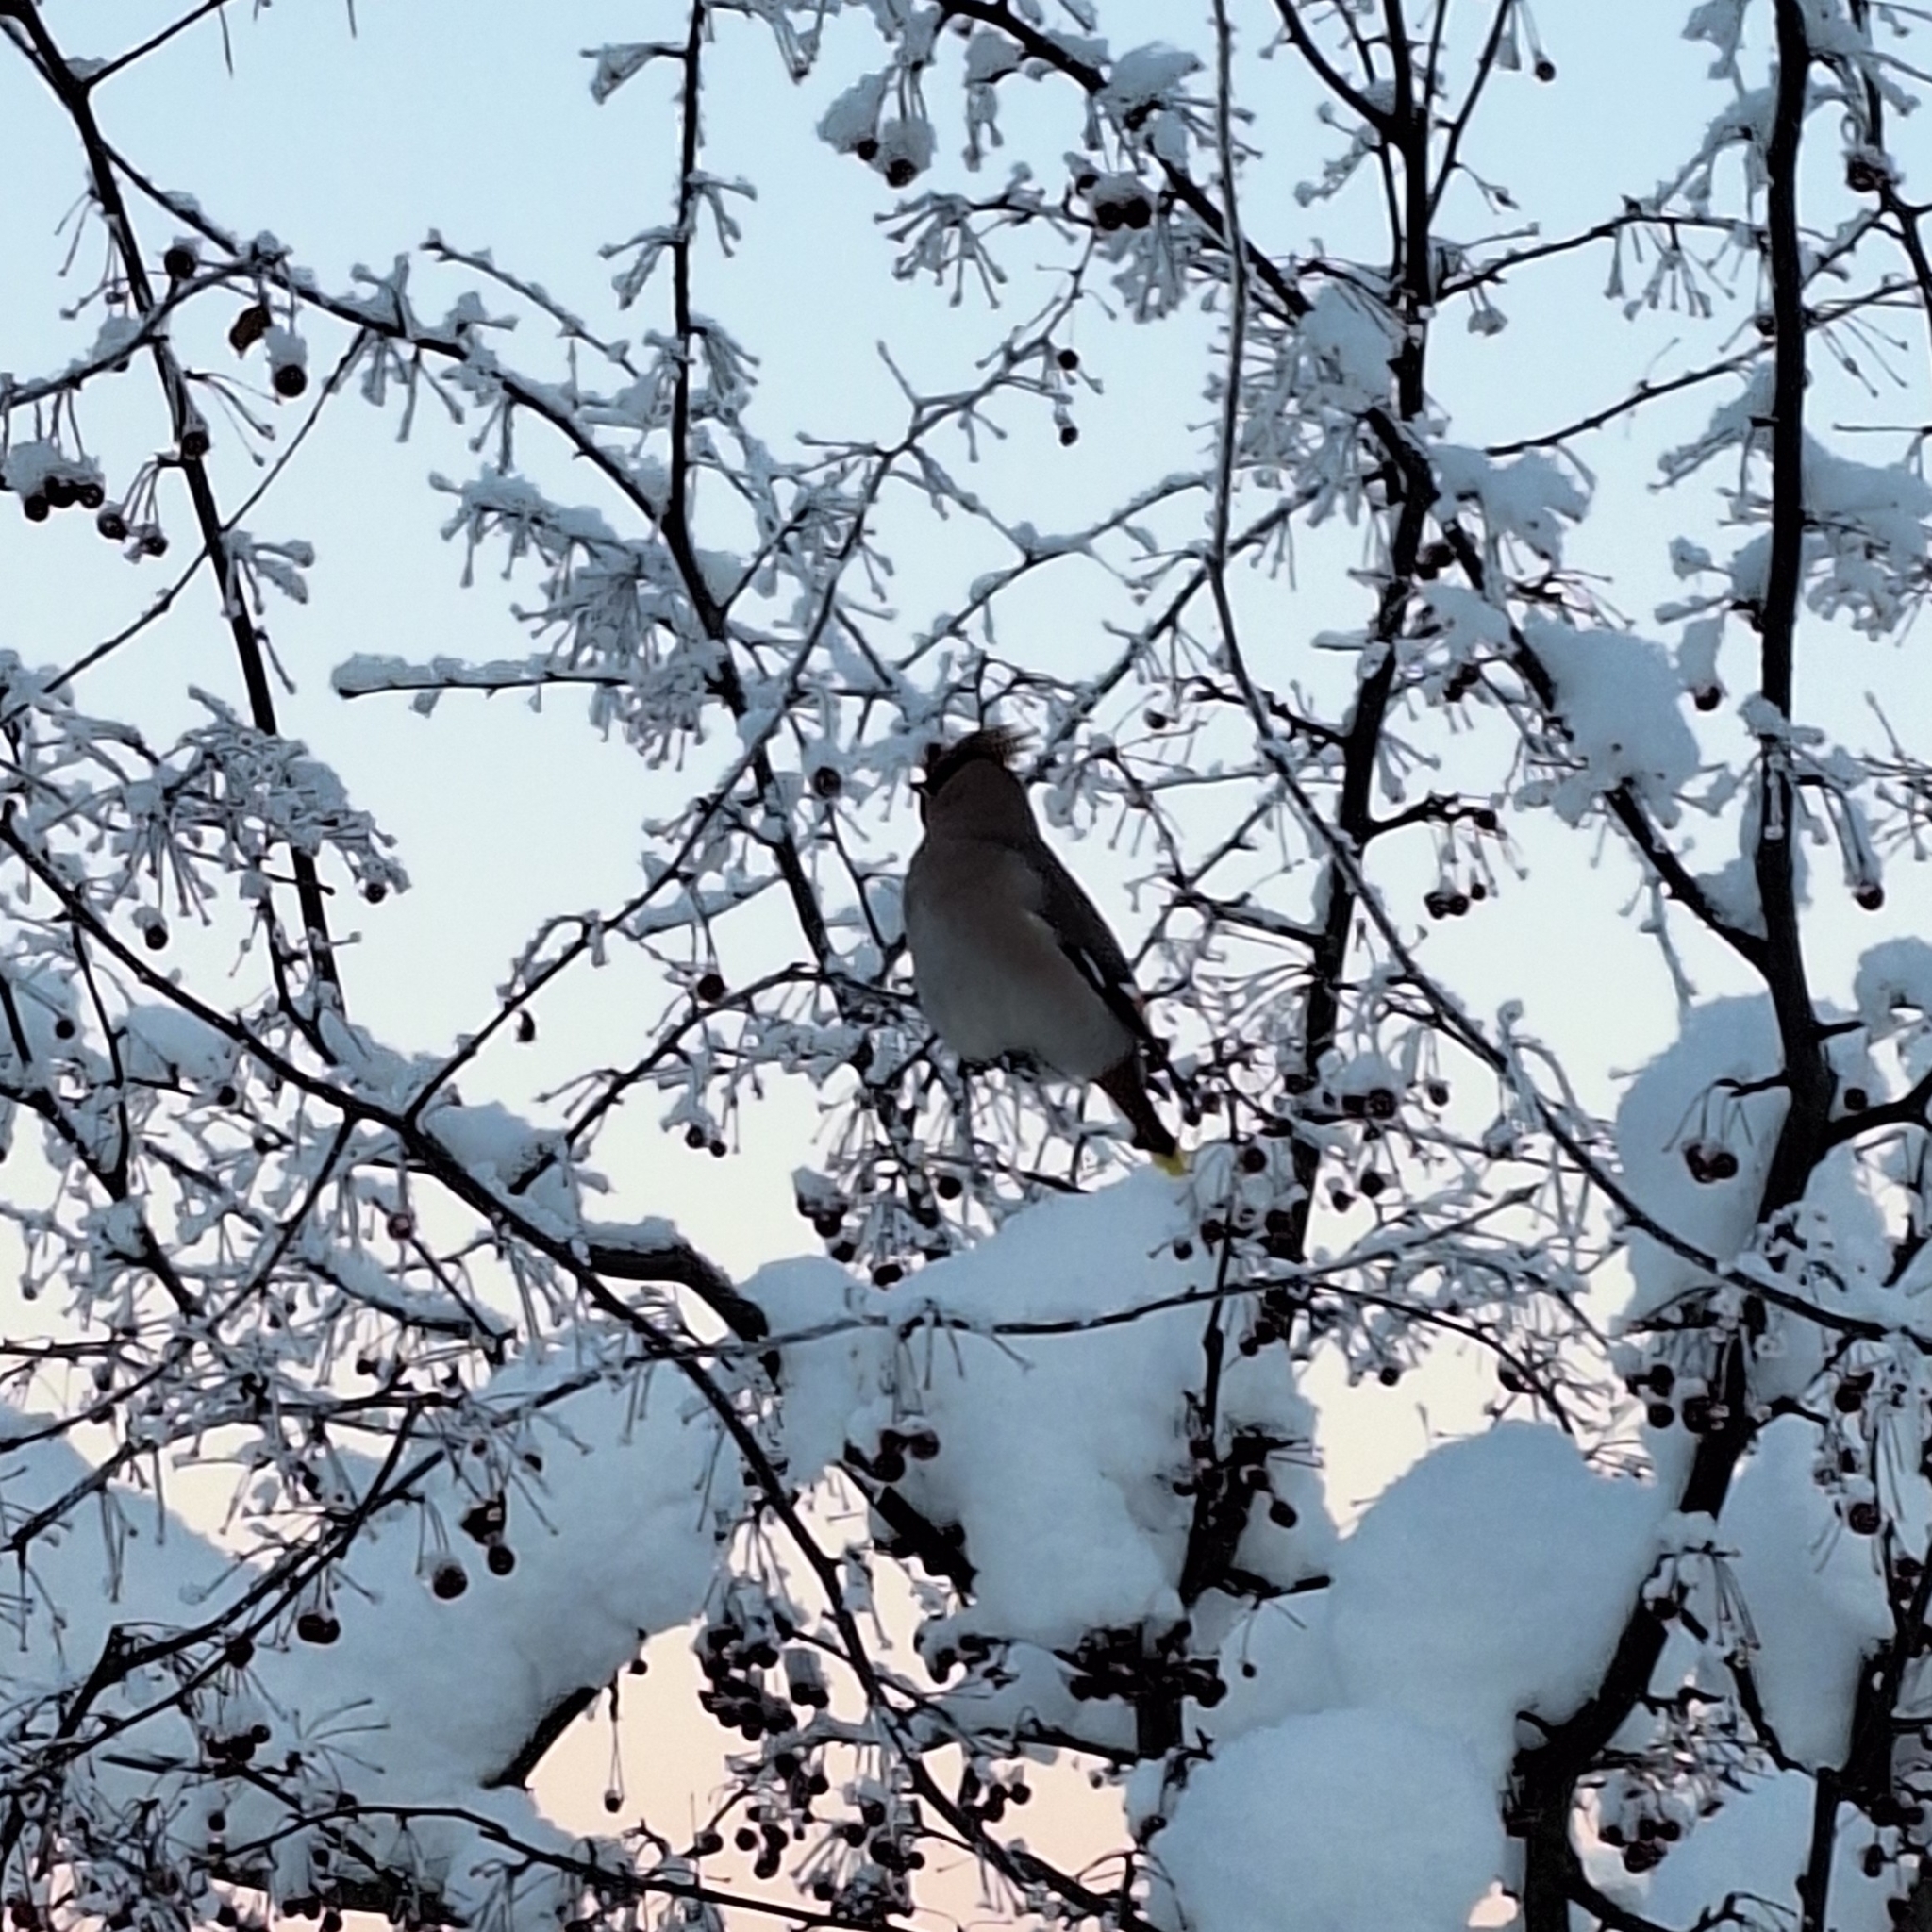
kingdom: Animalia
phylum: Chordata
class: Aves
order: Passeriformes
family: Bombycillidae
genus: Bombycilla
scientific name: Bombycilla garrulus
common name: Bohemian waxwing
